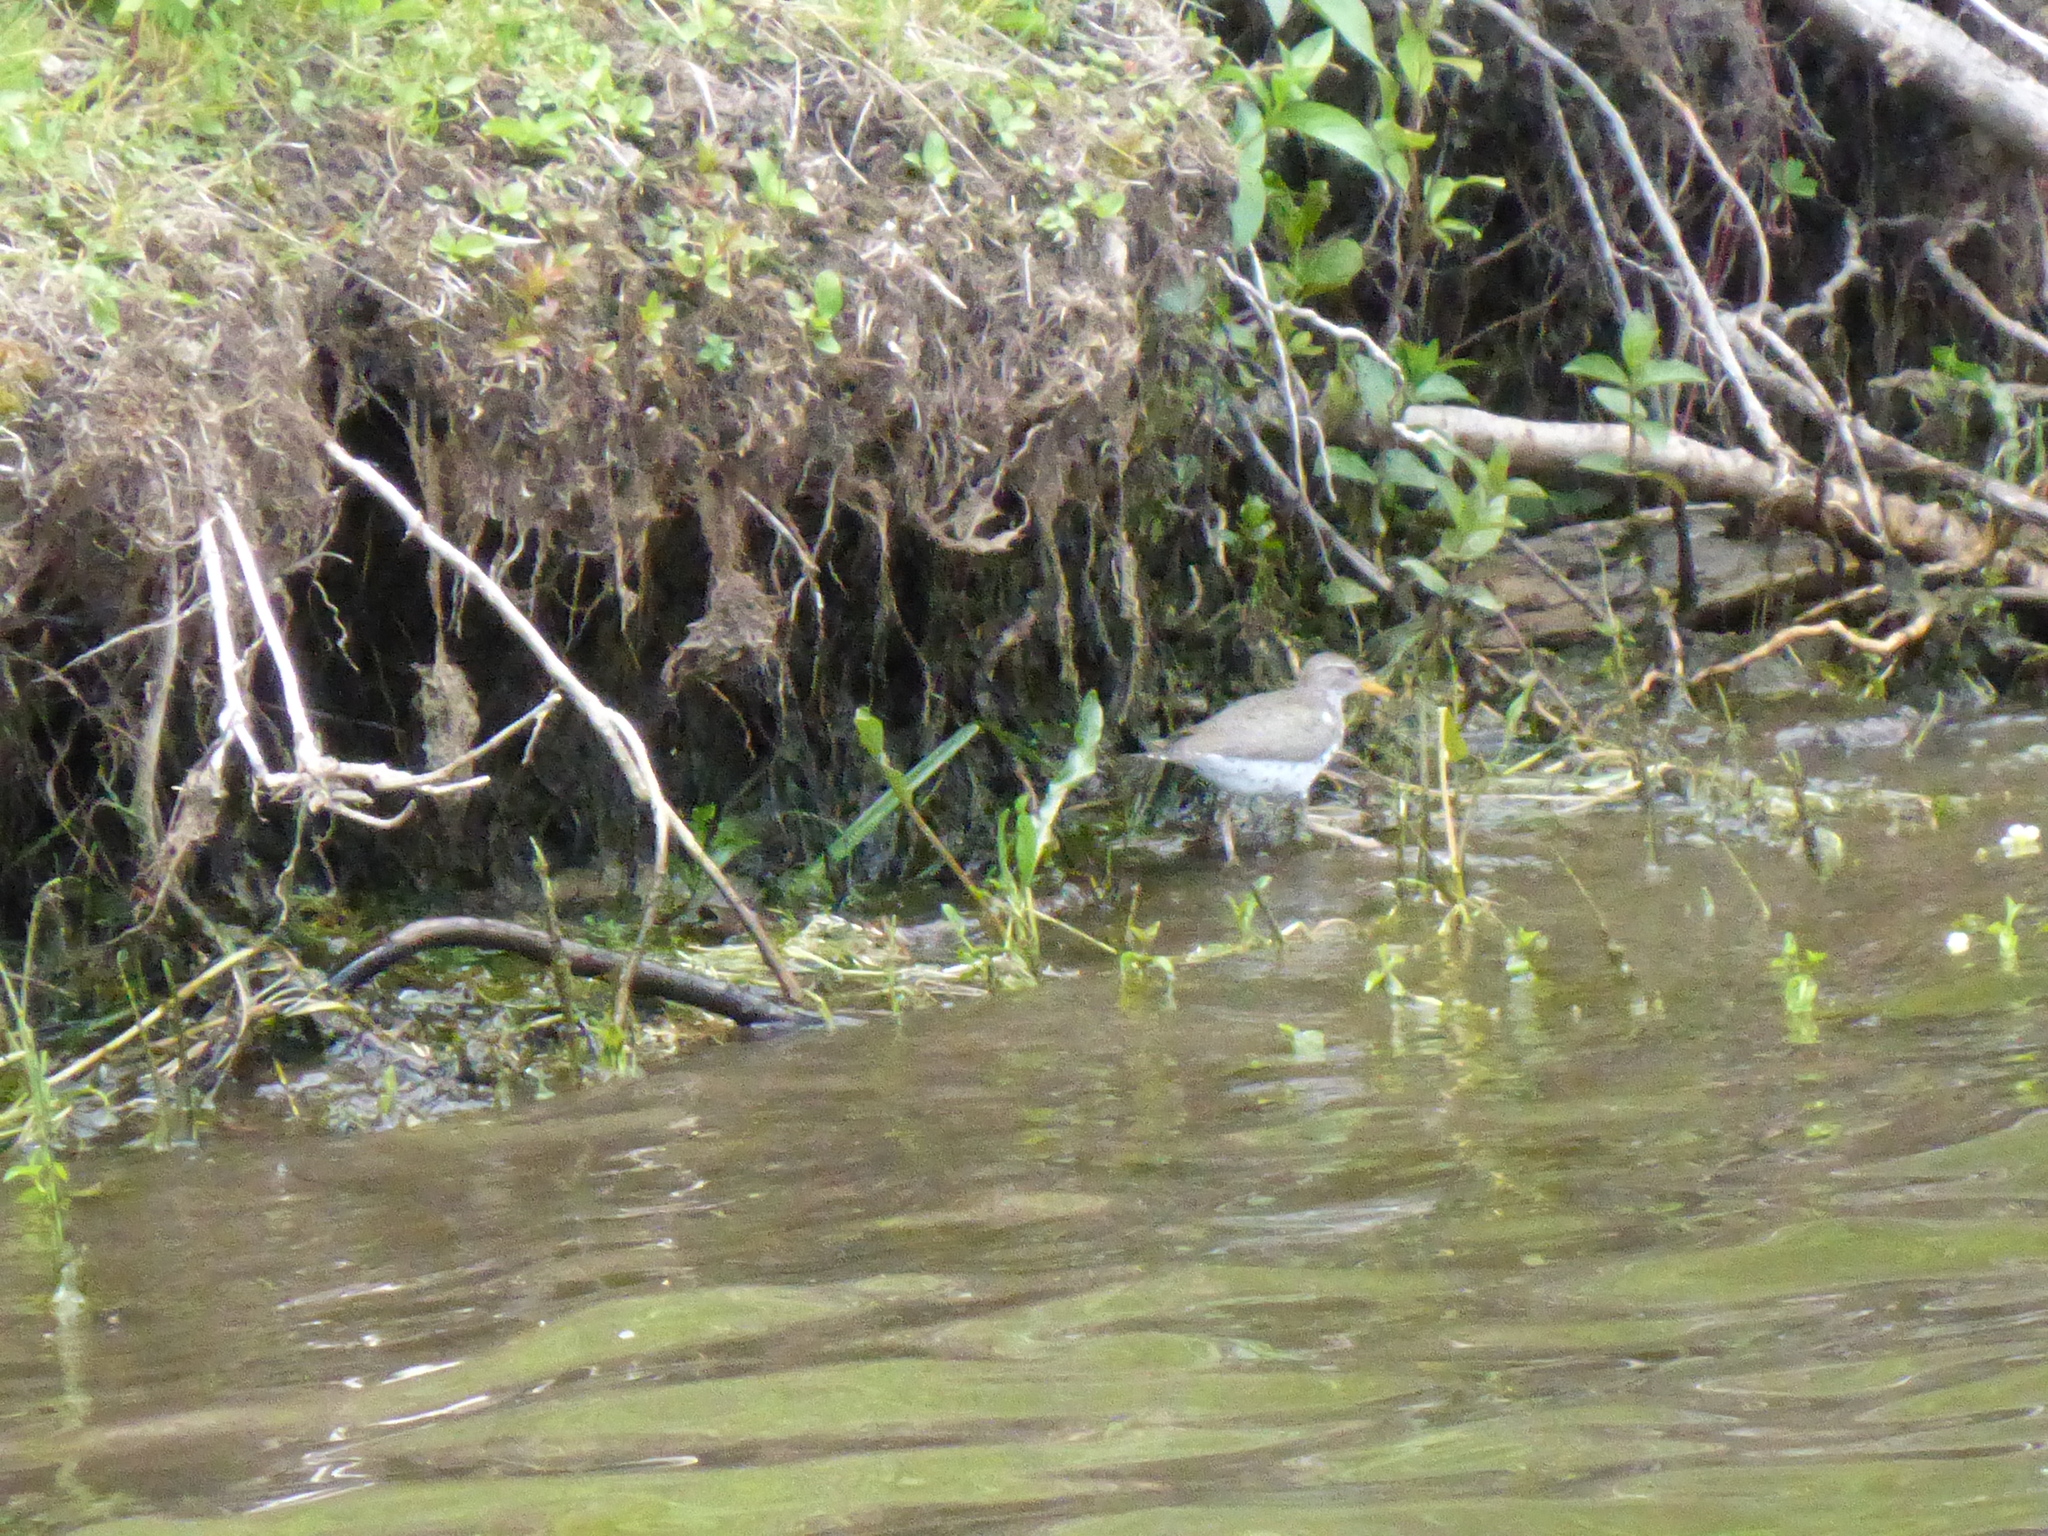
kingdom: Animalia
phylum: Chordata
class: Aves
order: Charadriiformes
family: Scolopacidae
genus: Actitis
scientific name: Actitis macularius
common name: Spotted sandpiper
